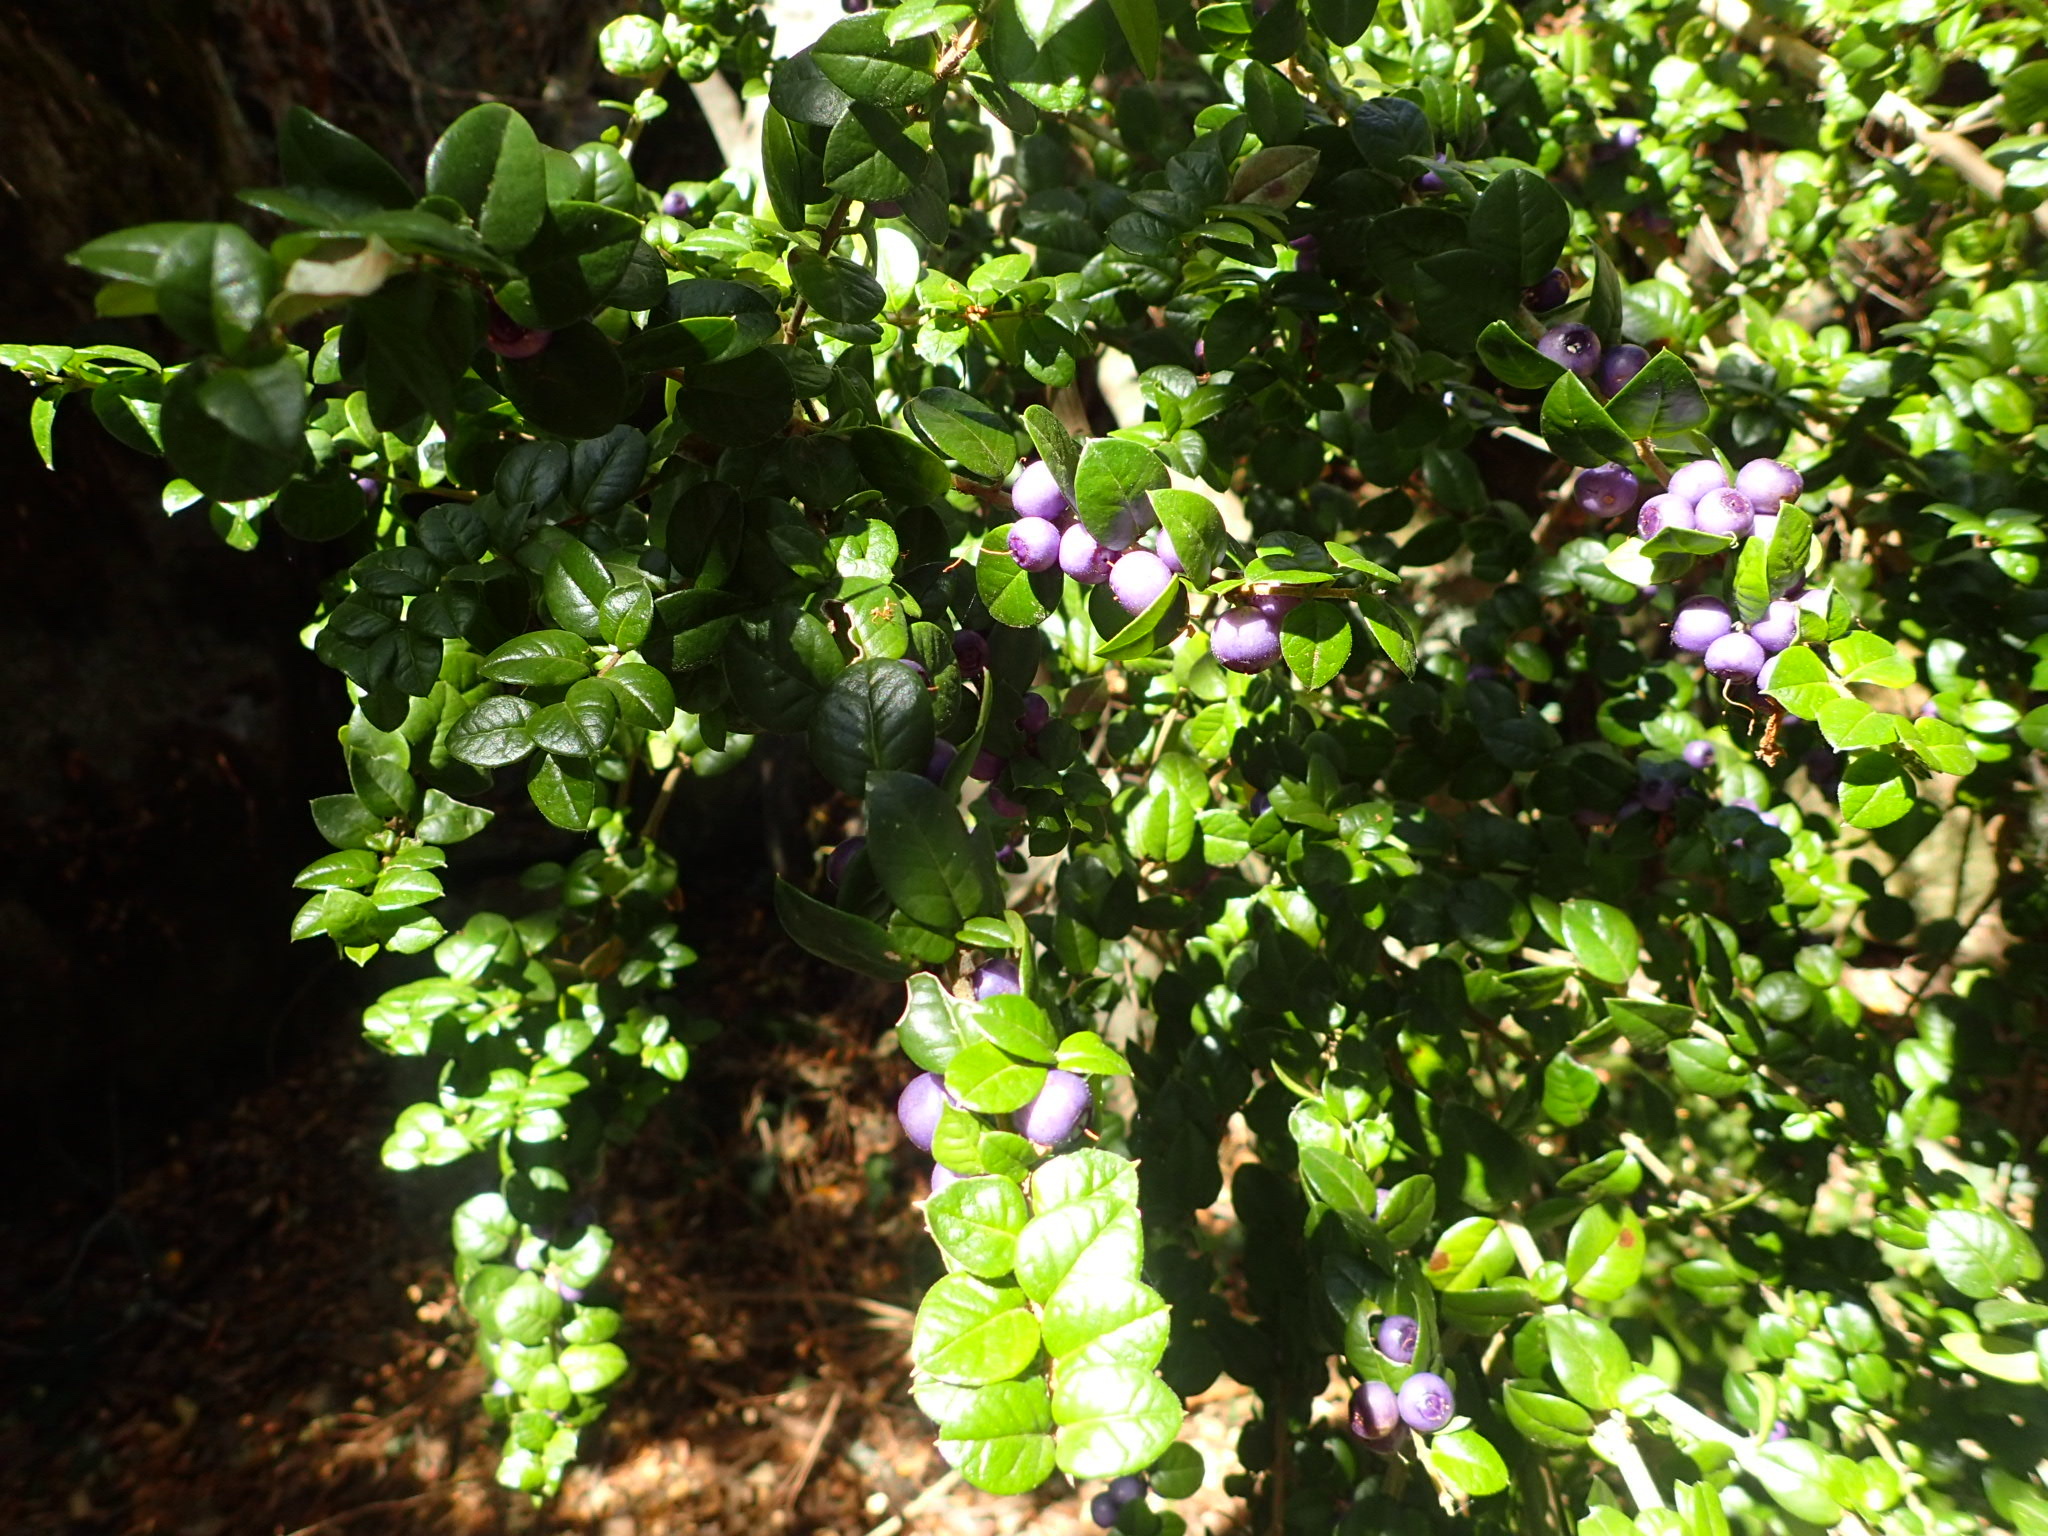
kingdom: Plantae
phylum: Tracheophyta
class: Magnoliopsida
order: Lamiales
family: Verbenaceae
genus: Rhaphithamnus
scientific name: Rhaphithamnus spinosus
